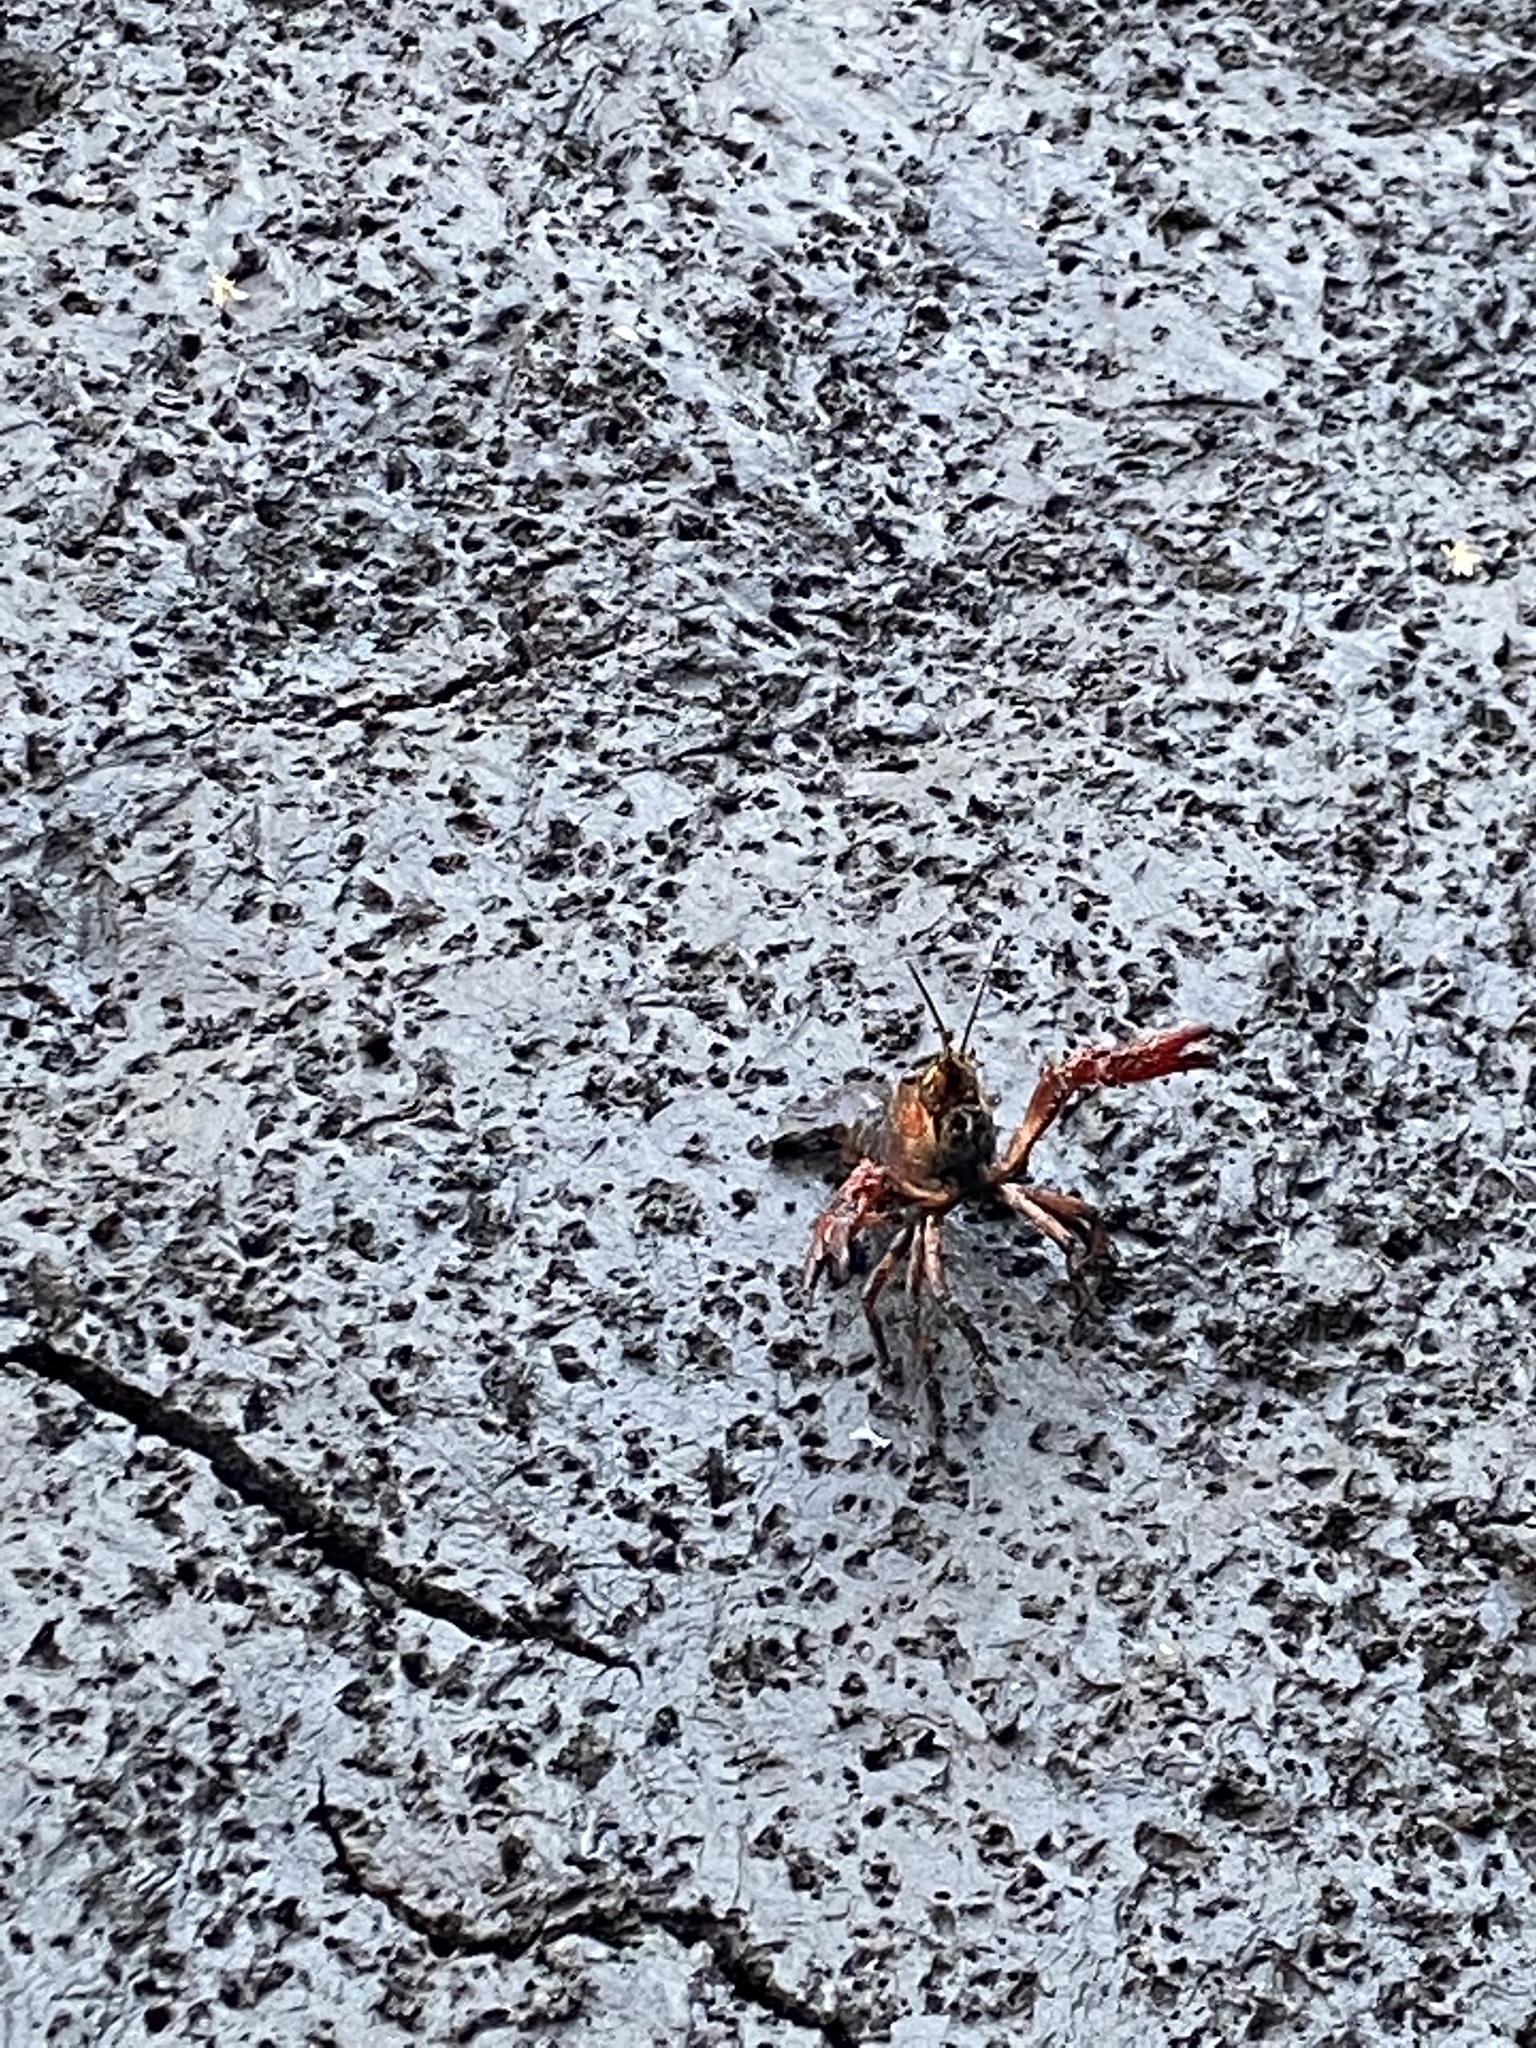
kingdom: Animalia
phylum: Arthropoda
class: Malacostraca
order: Decapoda
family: Cambaridae
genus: Procambarus
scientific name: Procambarus clarkii
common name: Red swamp crayfish
